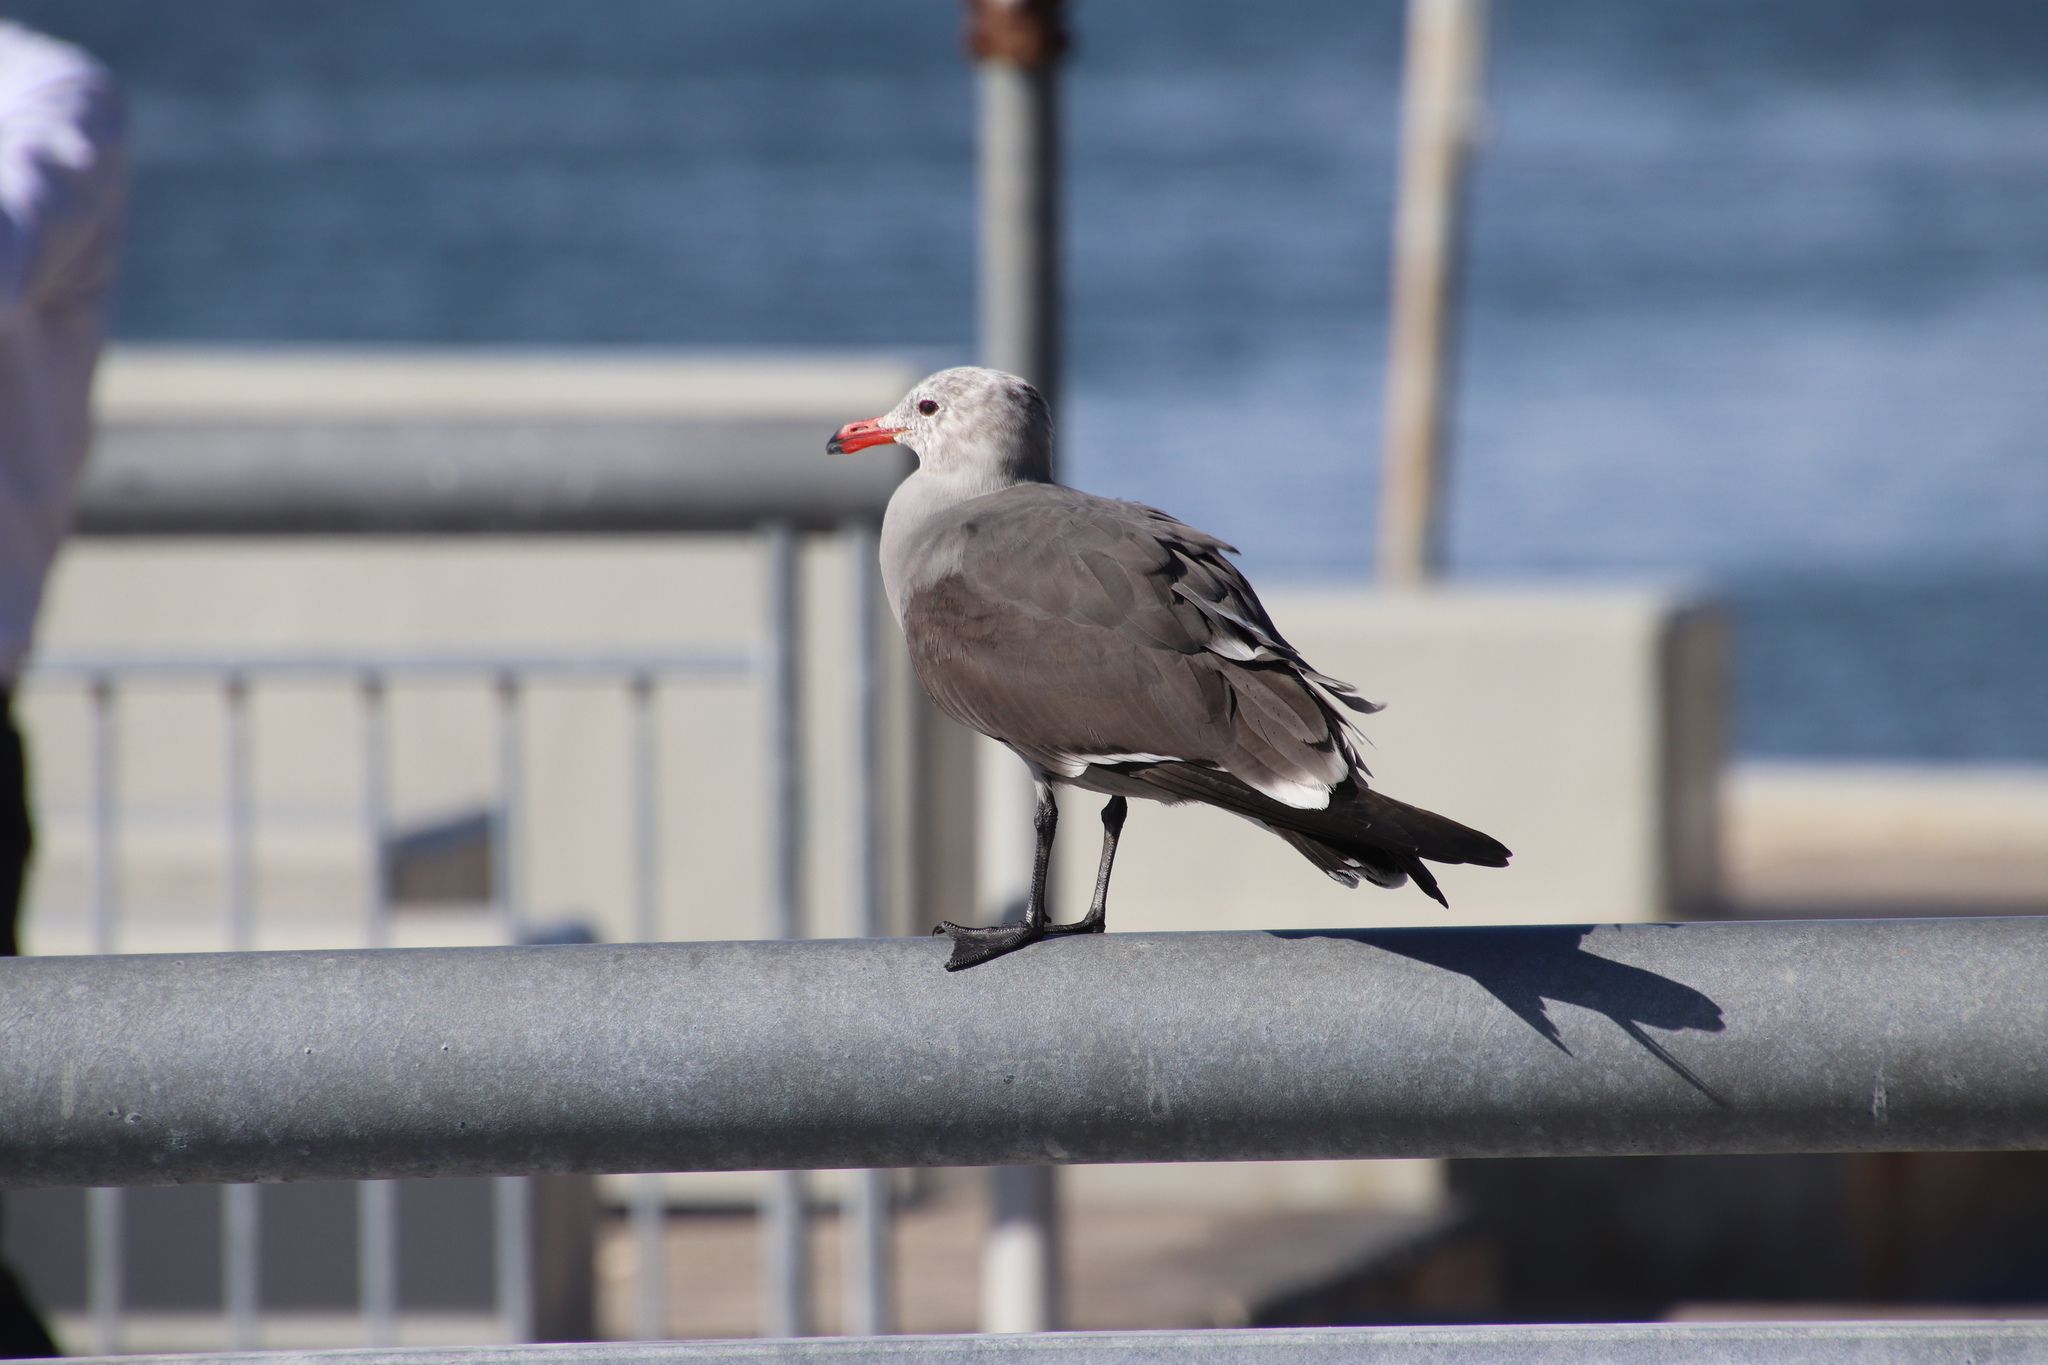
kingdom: Animalia
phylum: Chordata
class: Aves
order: Charadriiformes
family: Laridae
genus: Larus
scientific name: Larus heermanni
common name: Heermann's gull
